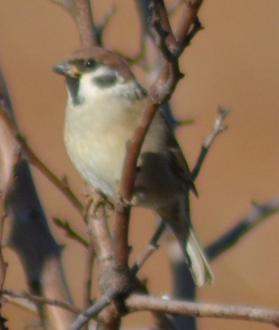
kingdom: Animalia
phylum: Chordata
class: Aves
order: Passeriformes
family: Passeridae
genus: Passer
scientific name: Passer montanus
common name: Eurasian tree sparrow
